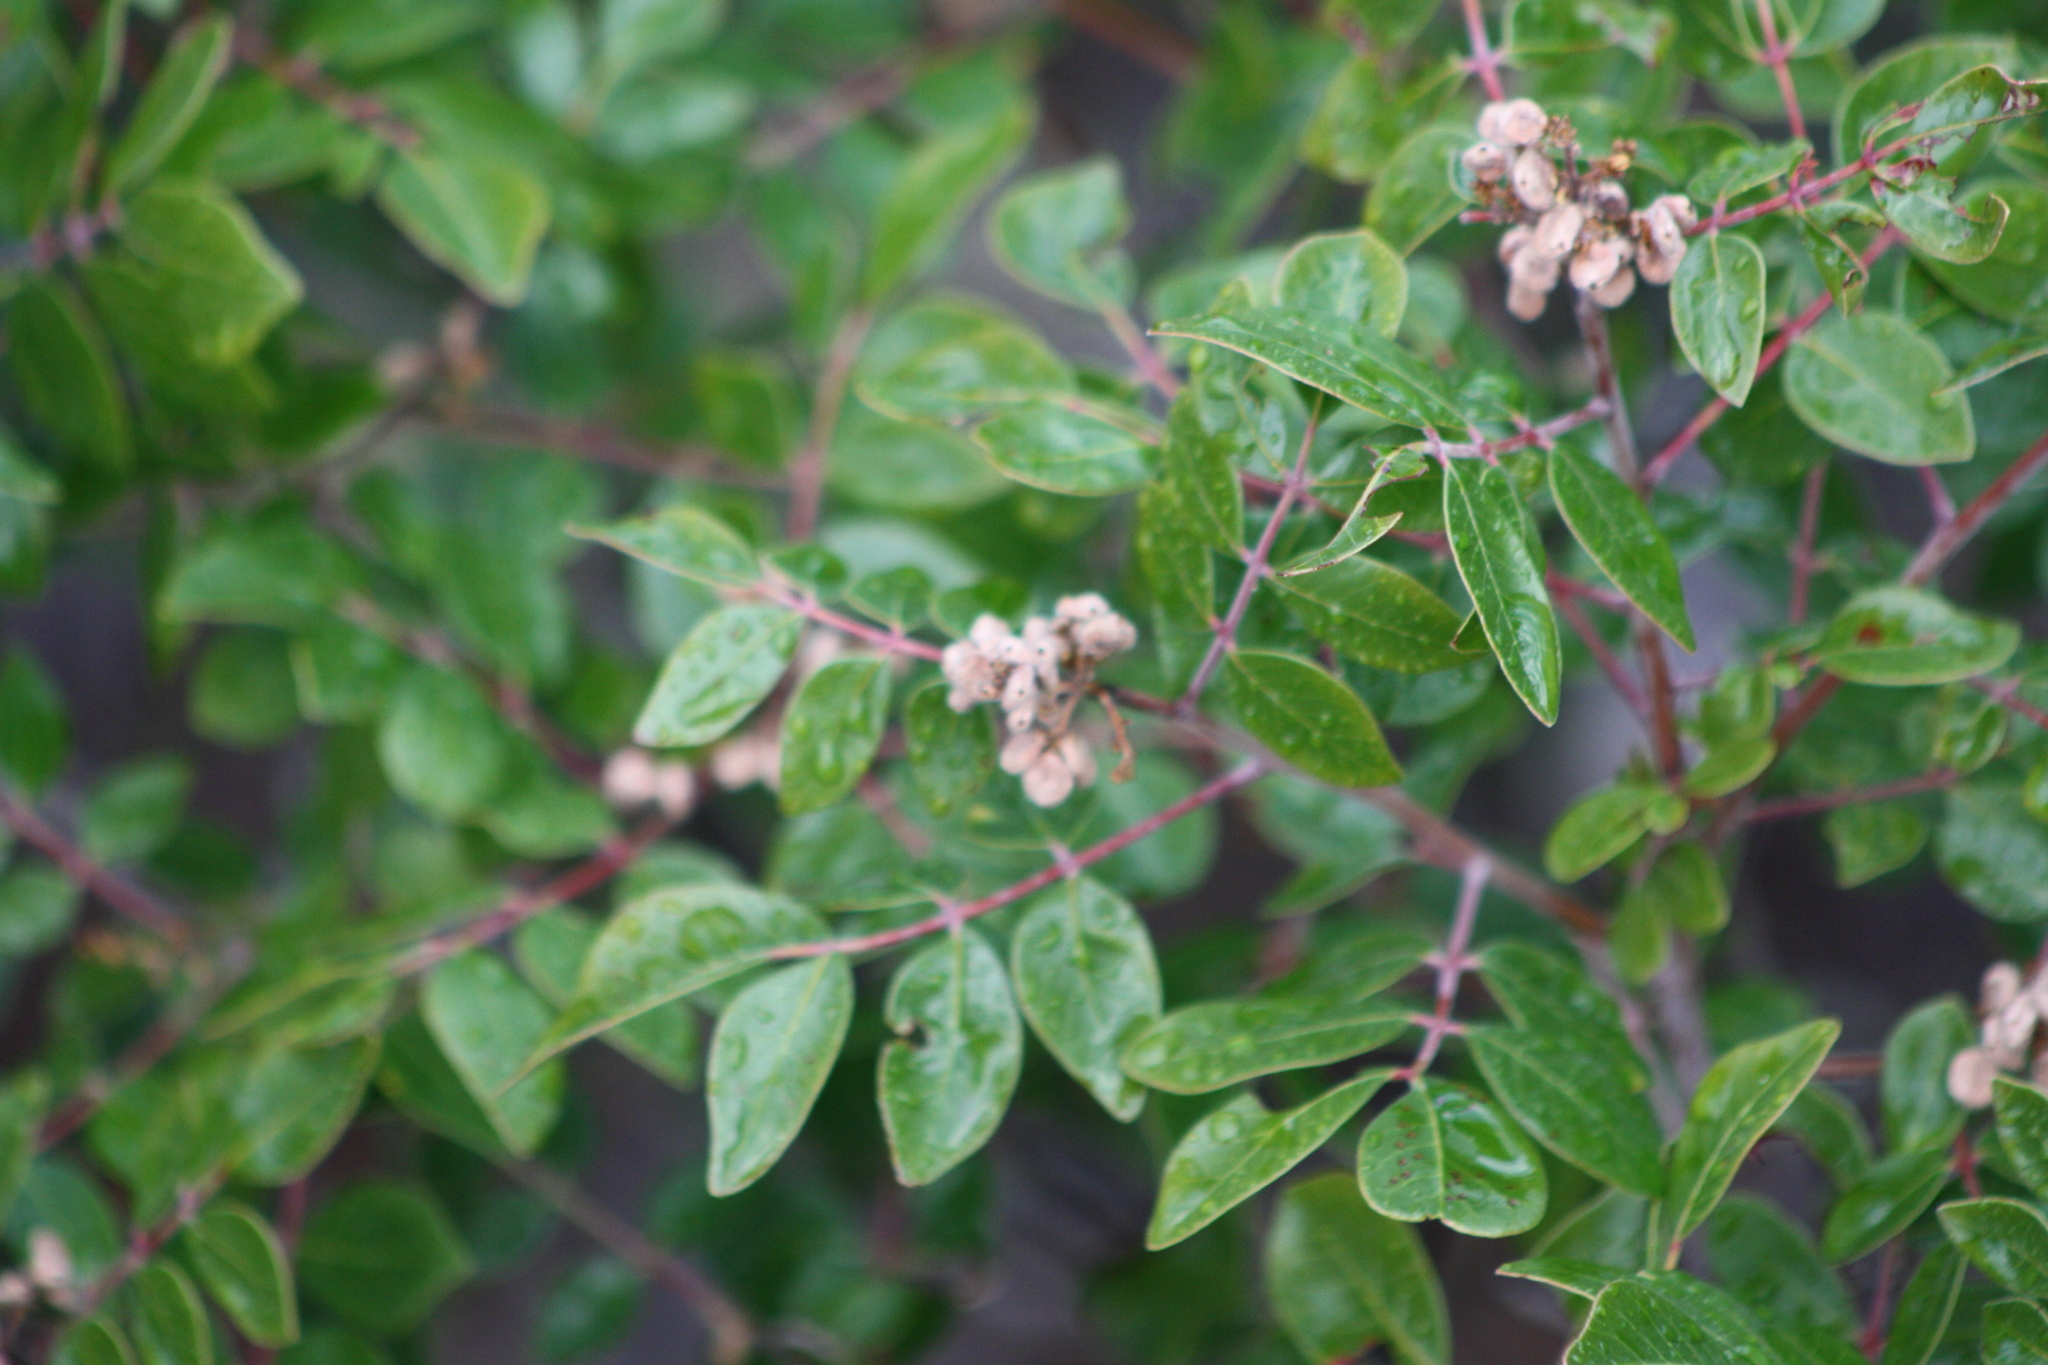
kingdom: Plantae
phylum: Tracheophyta
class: Magnoliopsida
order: Sapindales
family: Anacardiaceae
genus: Rhus
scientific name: Rhus virens
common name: Evergreen sumac
